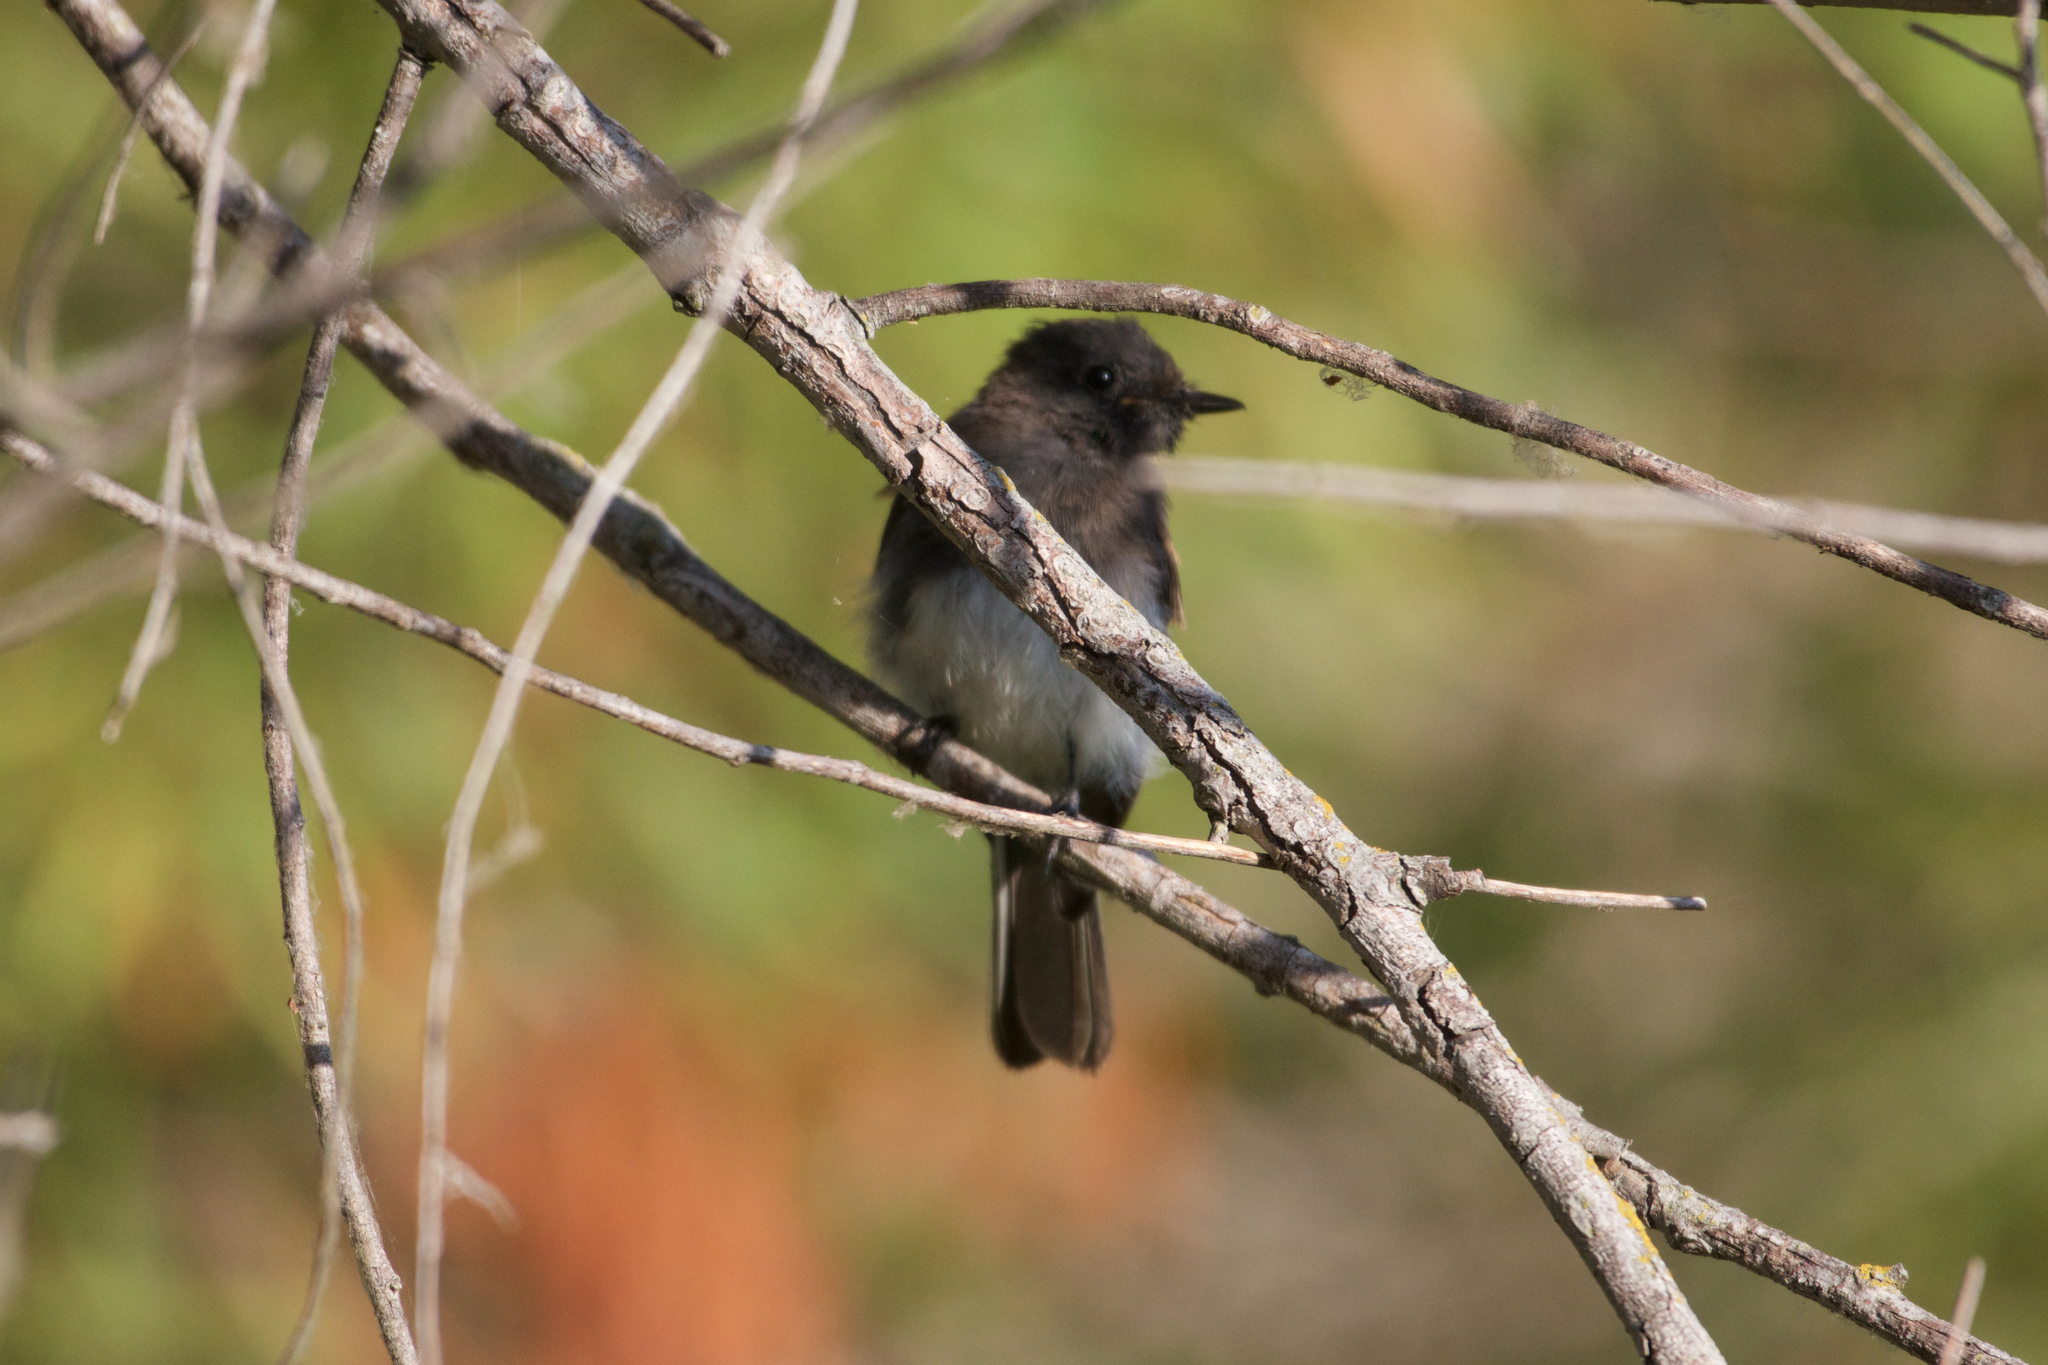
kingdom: Animalia
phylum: Chordata
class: Aves
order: Passeriformes
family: Tyrannidae
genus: Sayornis
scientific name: Sayornis nigricans
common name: Black phoebe
